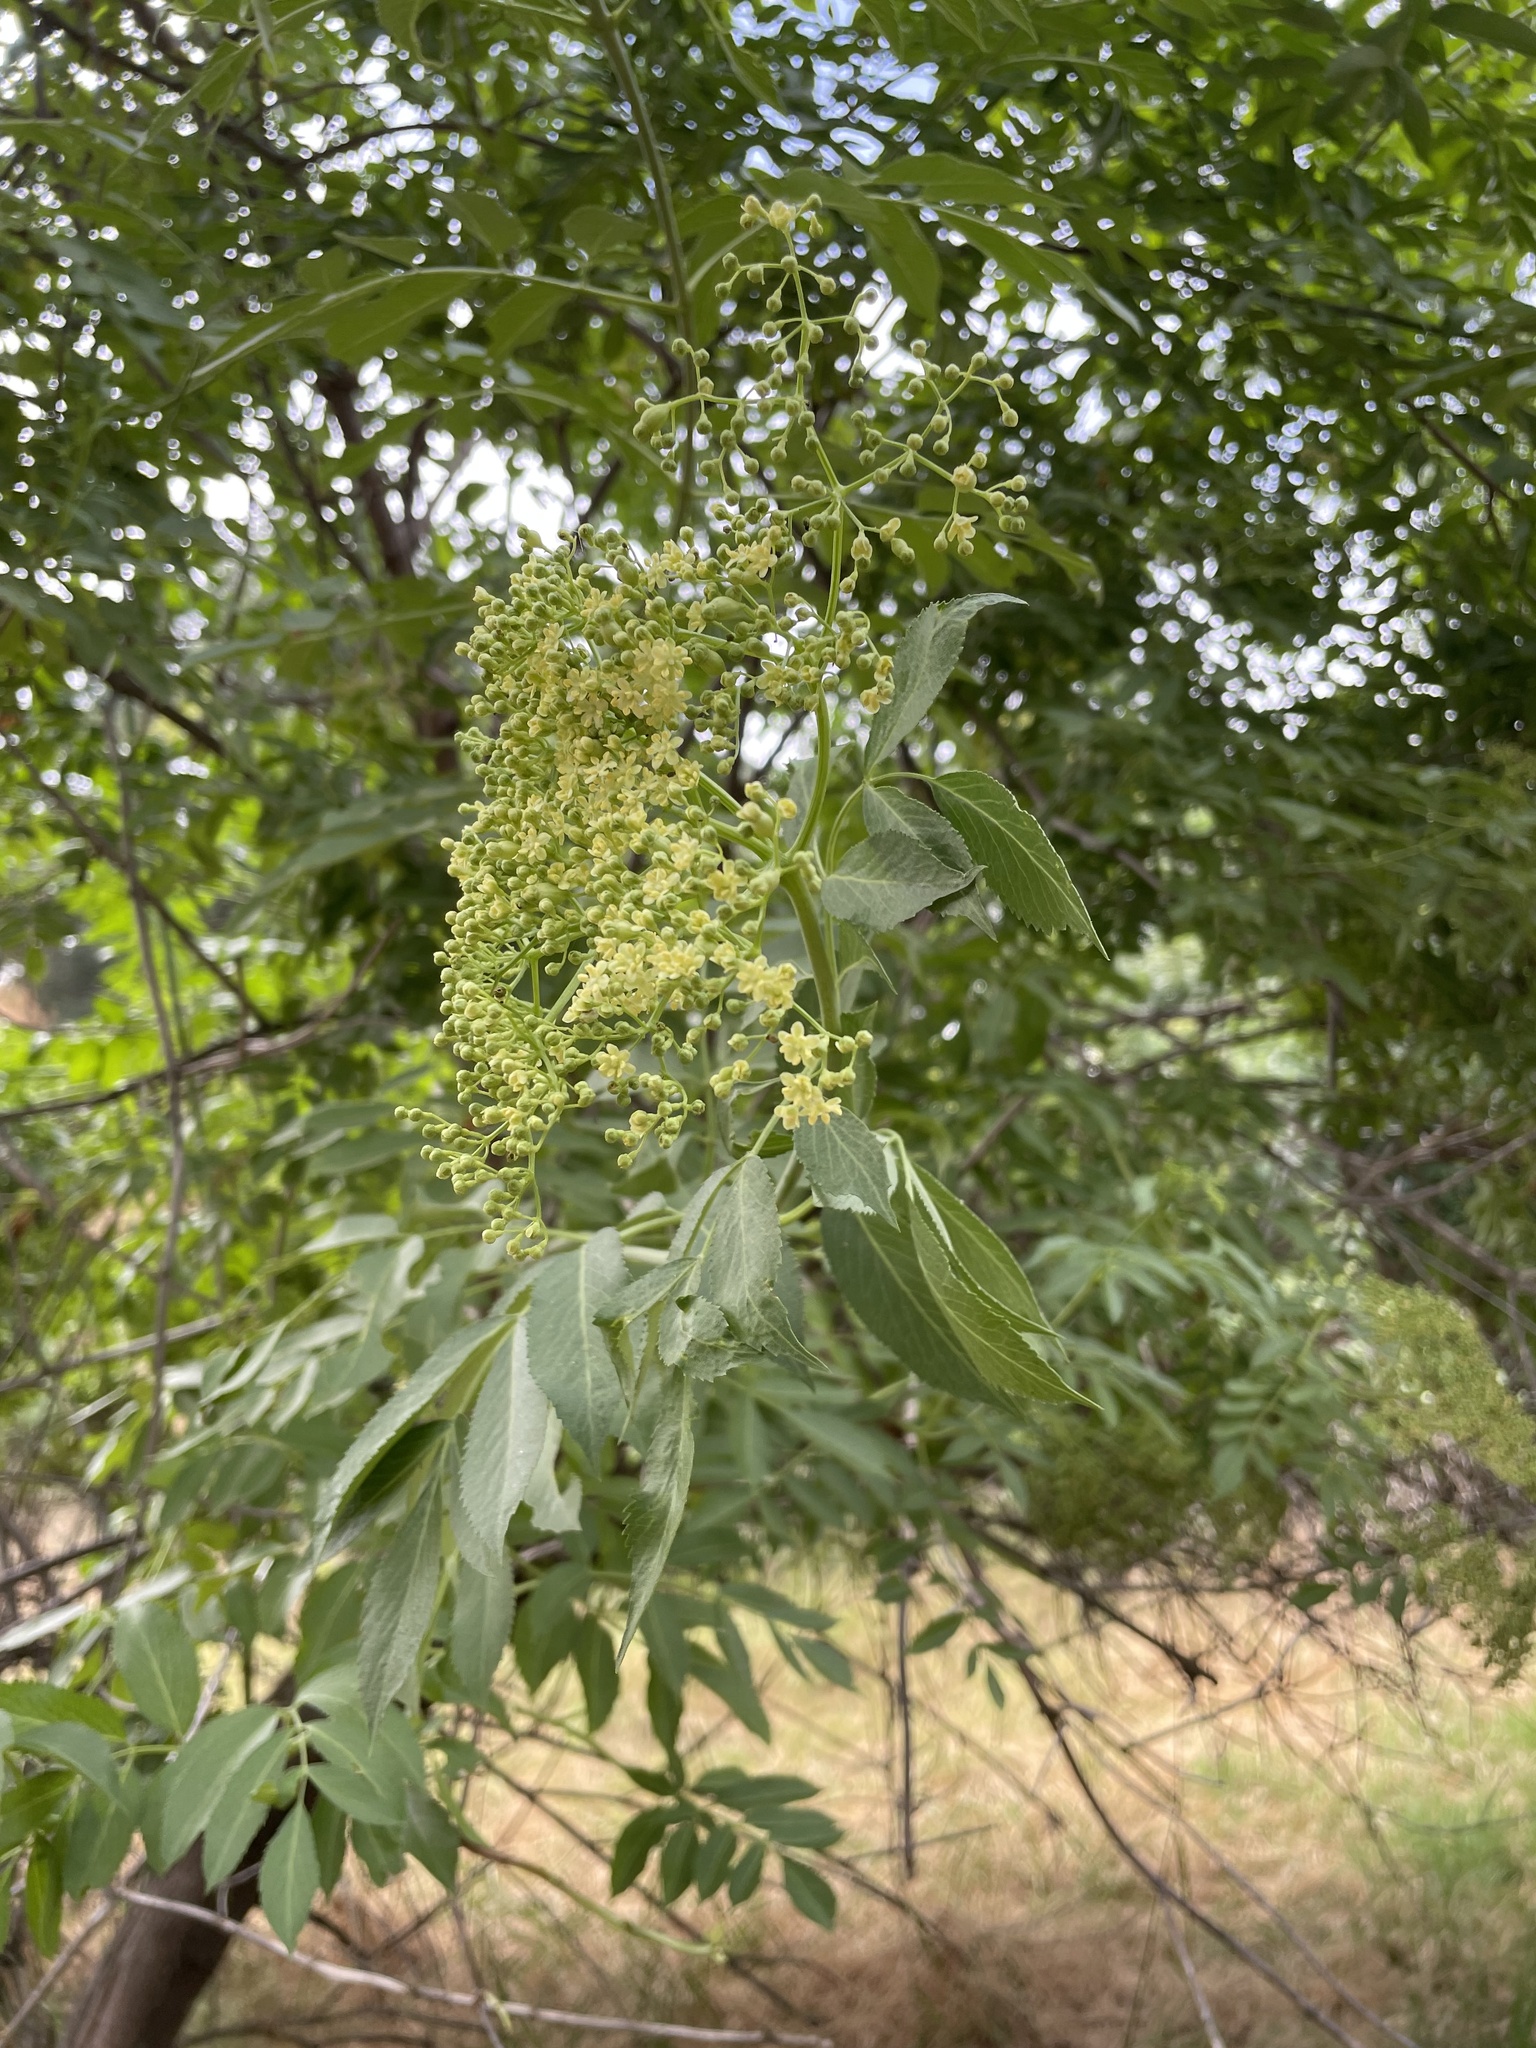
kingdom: Plantae
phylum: Tracheophyta
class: Magnoliopsida
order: Dipsacales
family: Viburnaceae
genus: Sambucus
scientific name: Sambucus cerulea
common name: Blue elder
